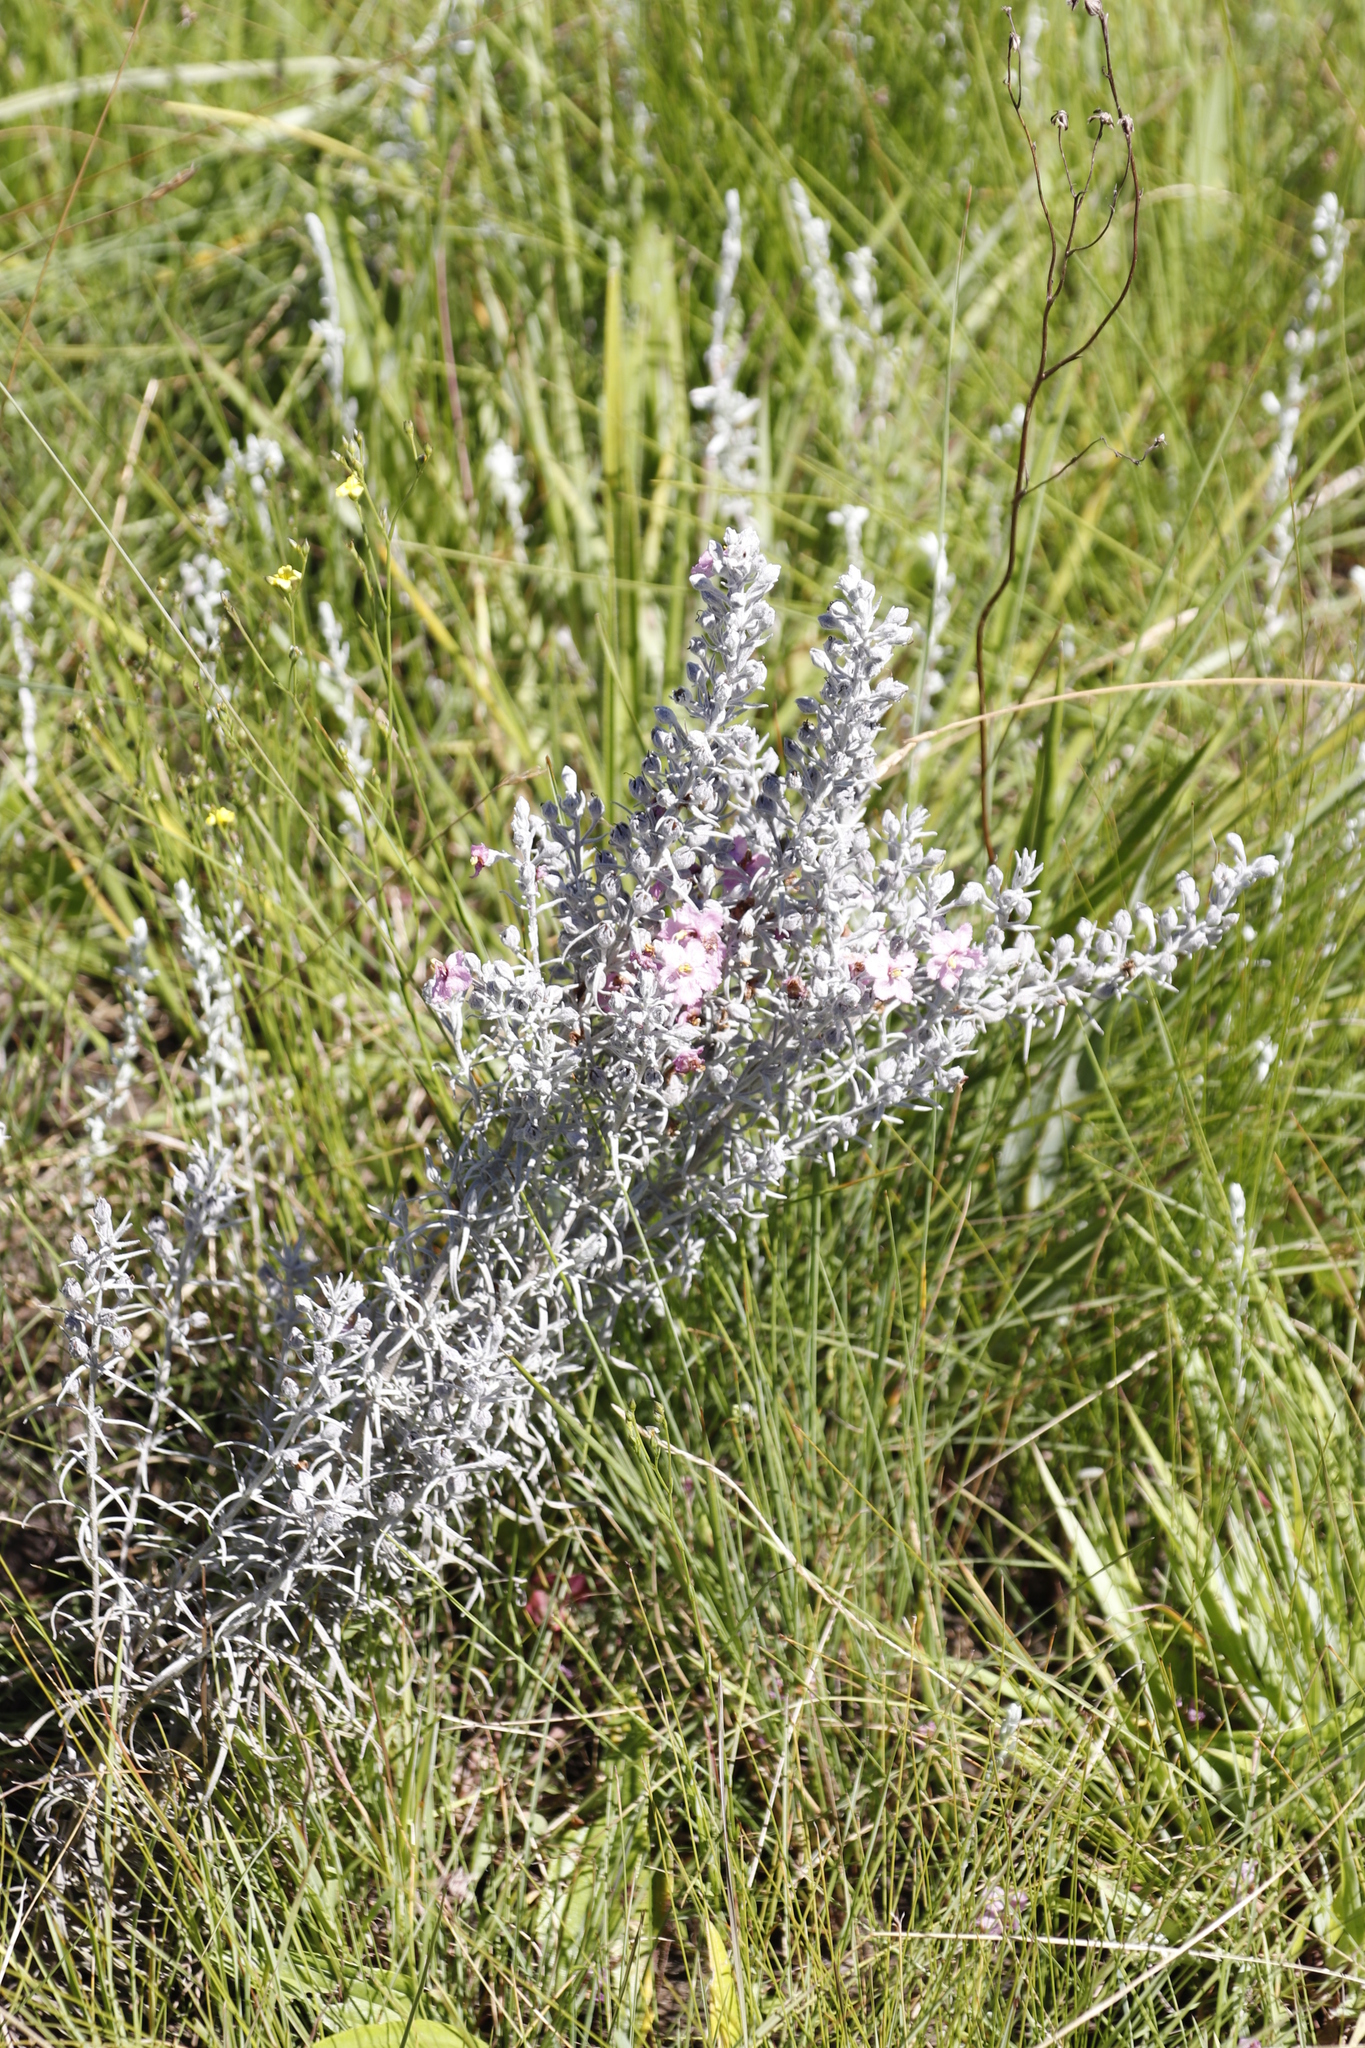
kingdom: Plantae
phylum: Tracheophyta
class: Magnoliopsida
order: Lamiales
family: Orobanchaceae
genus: Sopubia
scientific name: Sopubia cana
